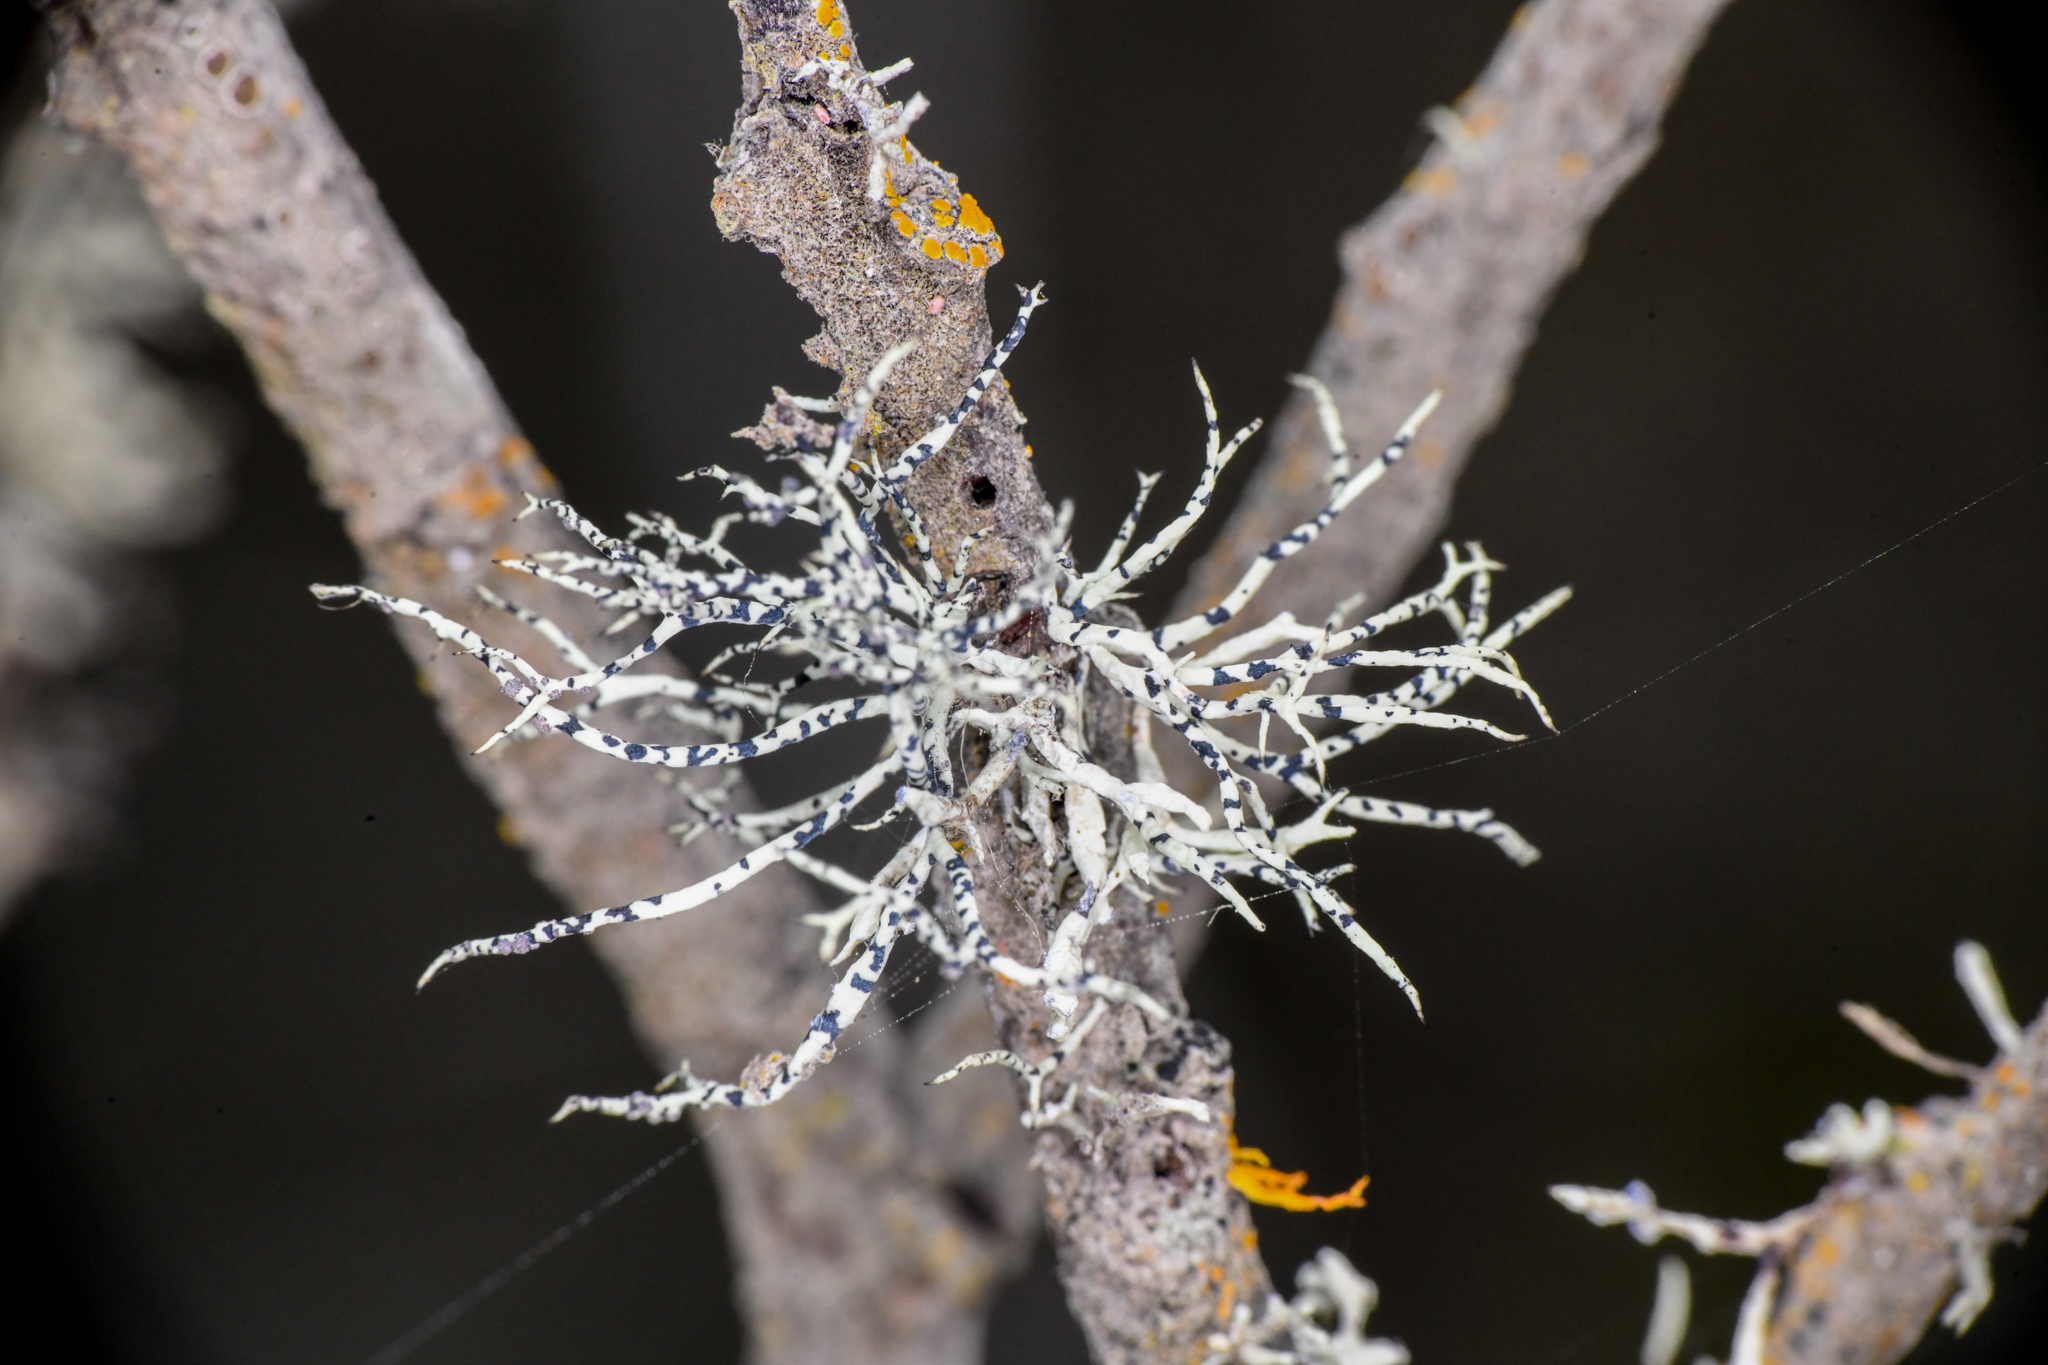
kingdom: Fungi
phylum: Ascomycota
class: Lecanoromycetes
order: Lecanorales
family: Ramalinaceae
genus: Niebla
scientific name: Niebla cephalota
